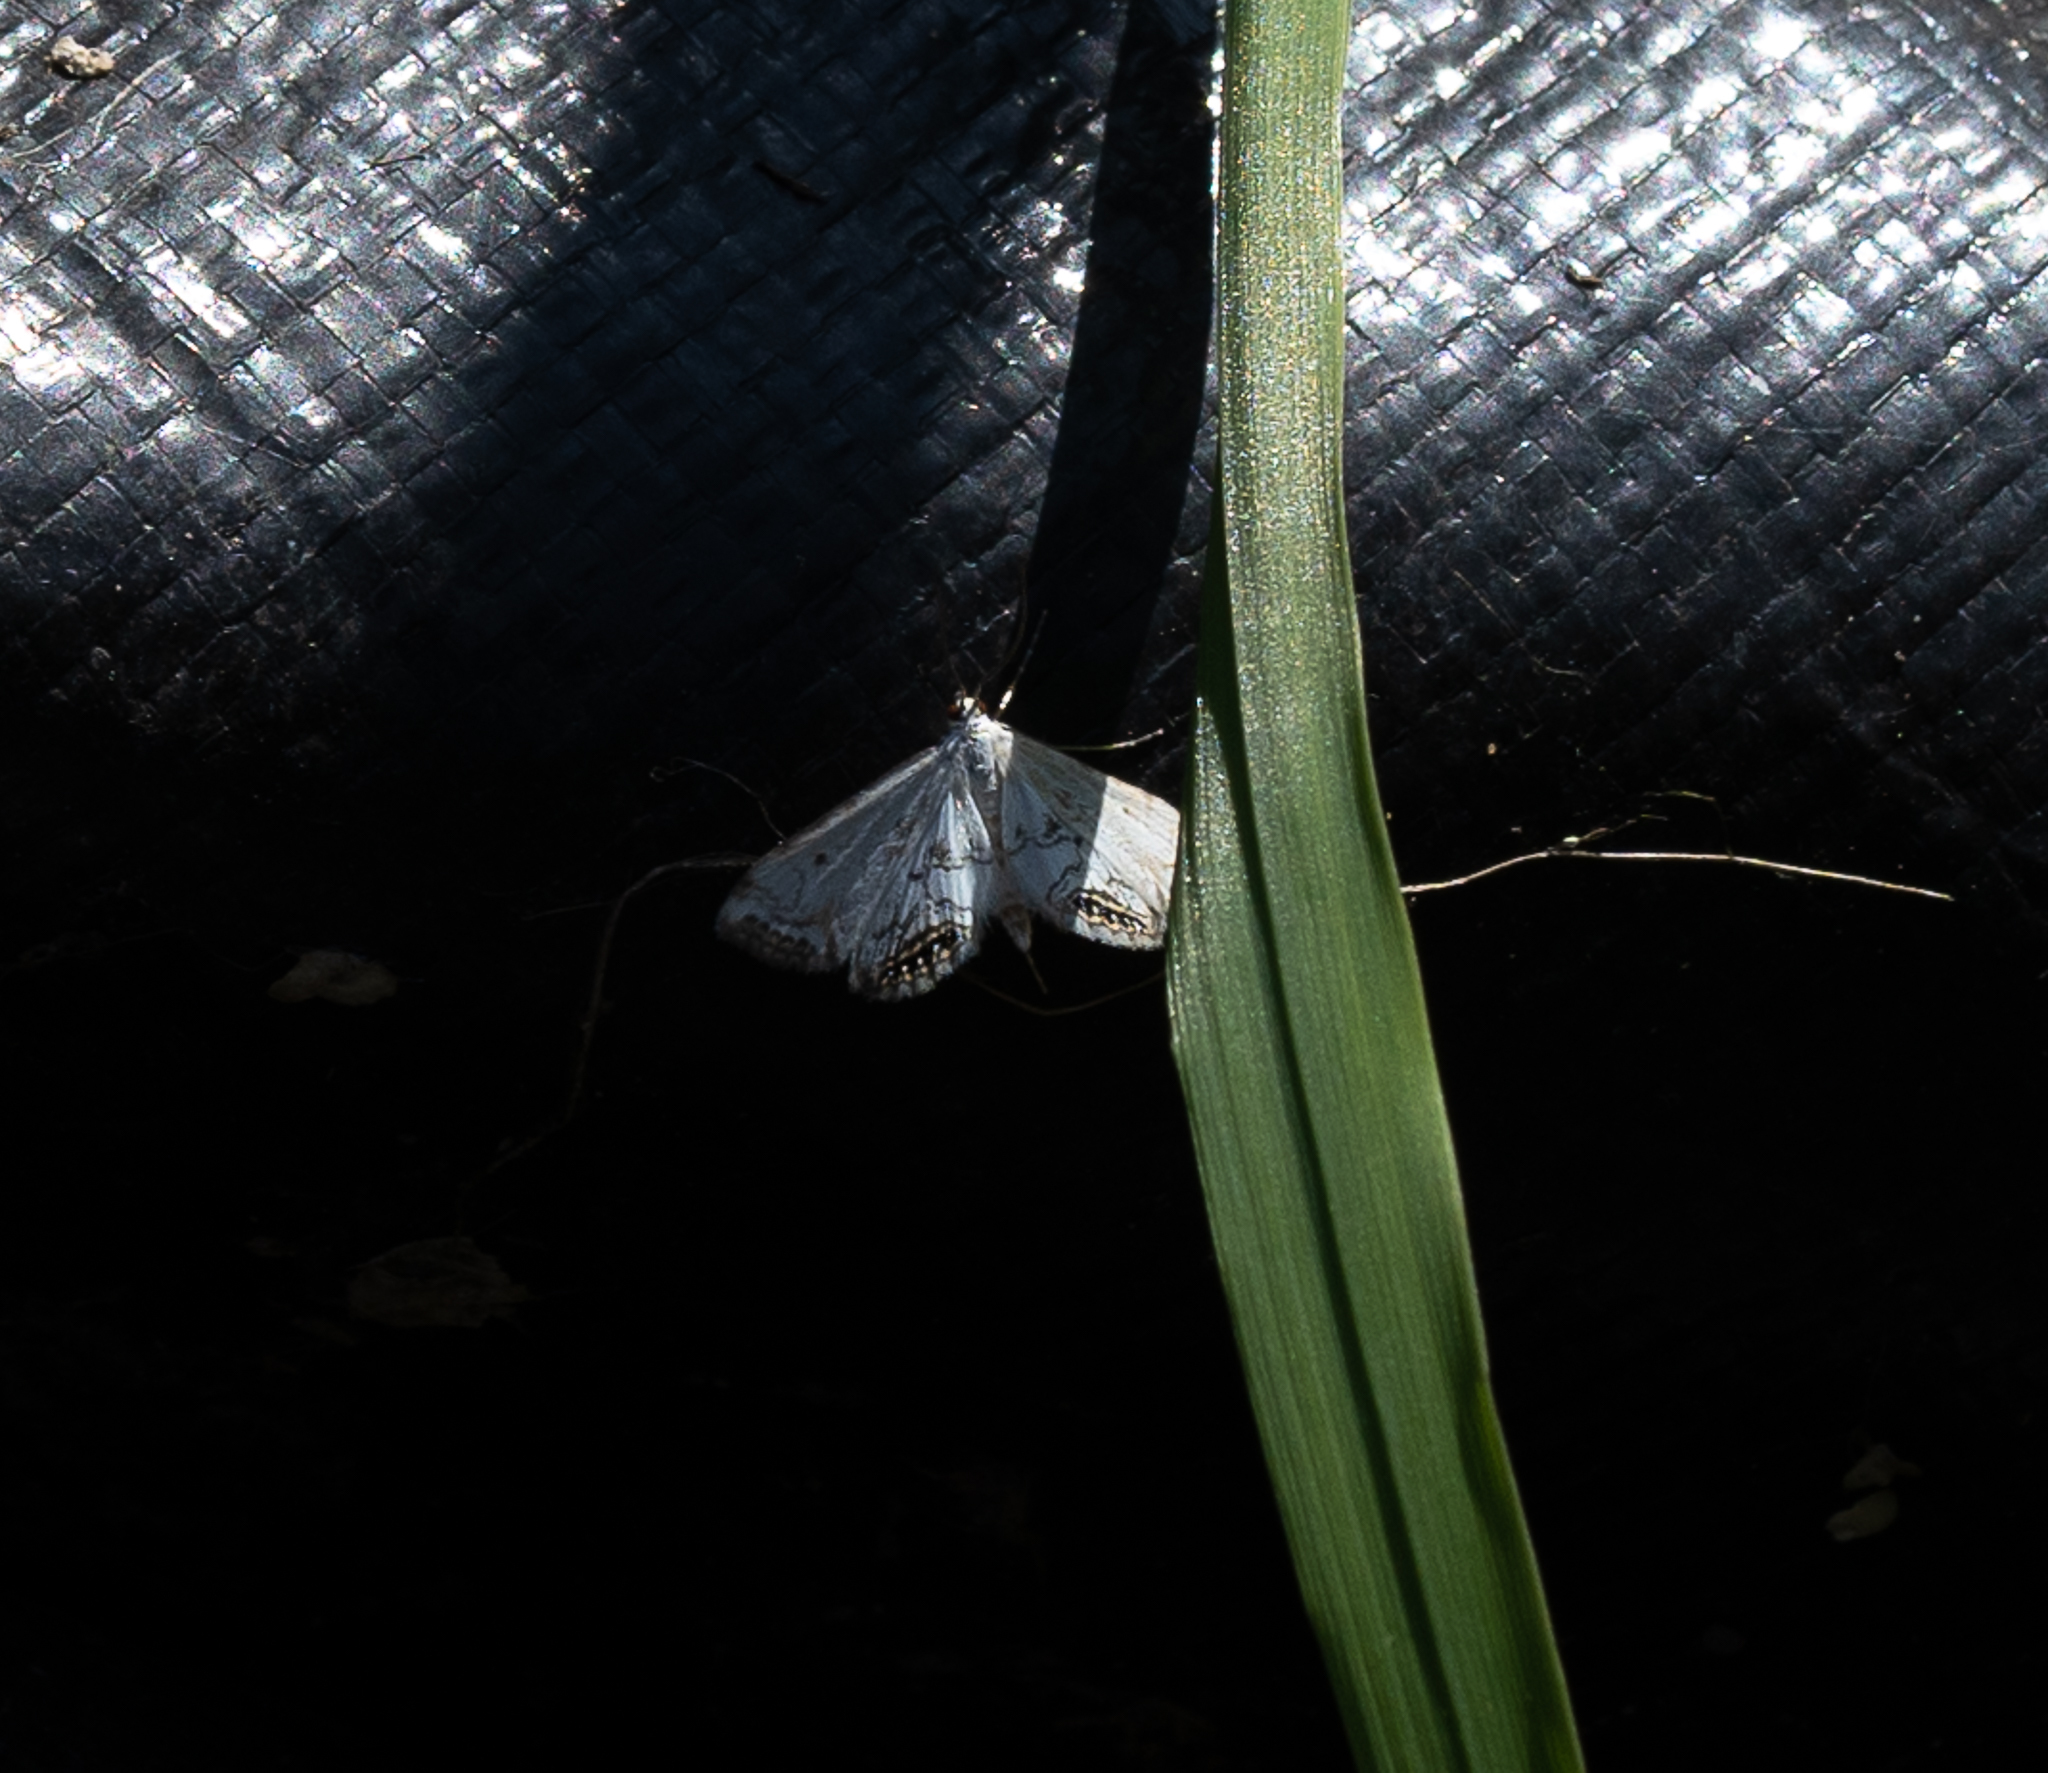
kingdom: Animalia
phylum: Arthropoda
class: Insecta
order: Lepidoptera
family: Crambidae
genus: Cataclysta
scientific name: Cataclysta lemnata
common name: Small china-mark
